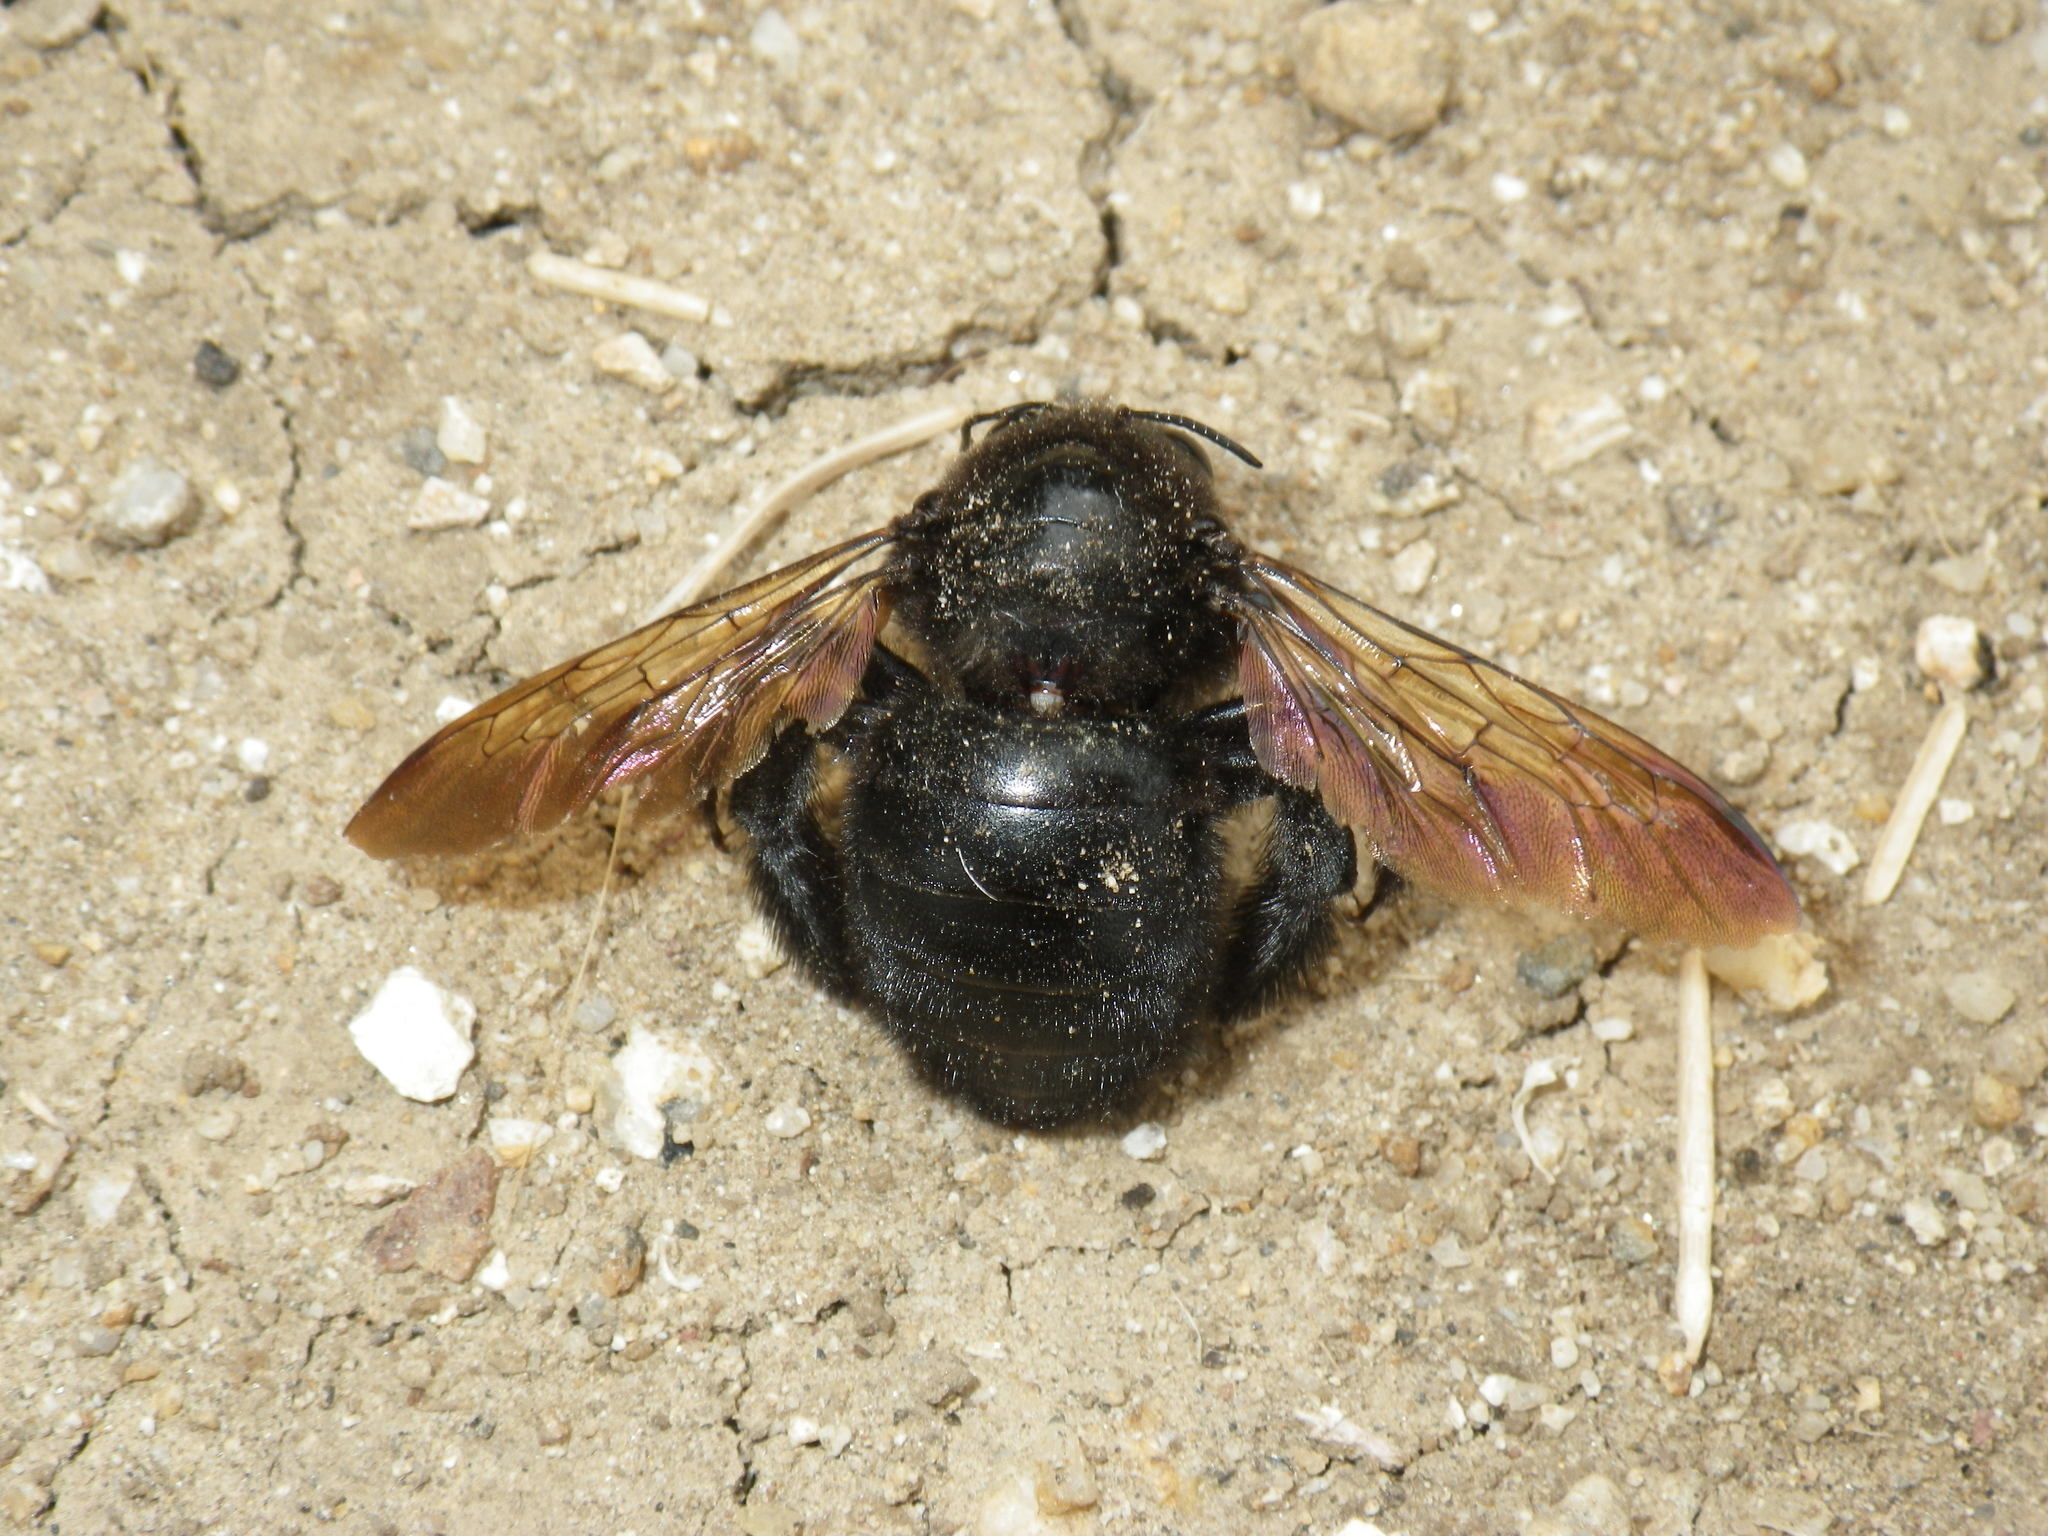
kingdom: Animalia
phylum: Arthropoda
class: Insecta
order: Hymenoptera
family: Apidae
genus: Xylocopa
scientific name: Xylocopa sonorina
